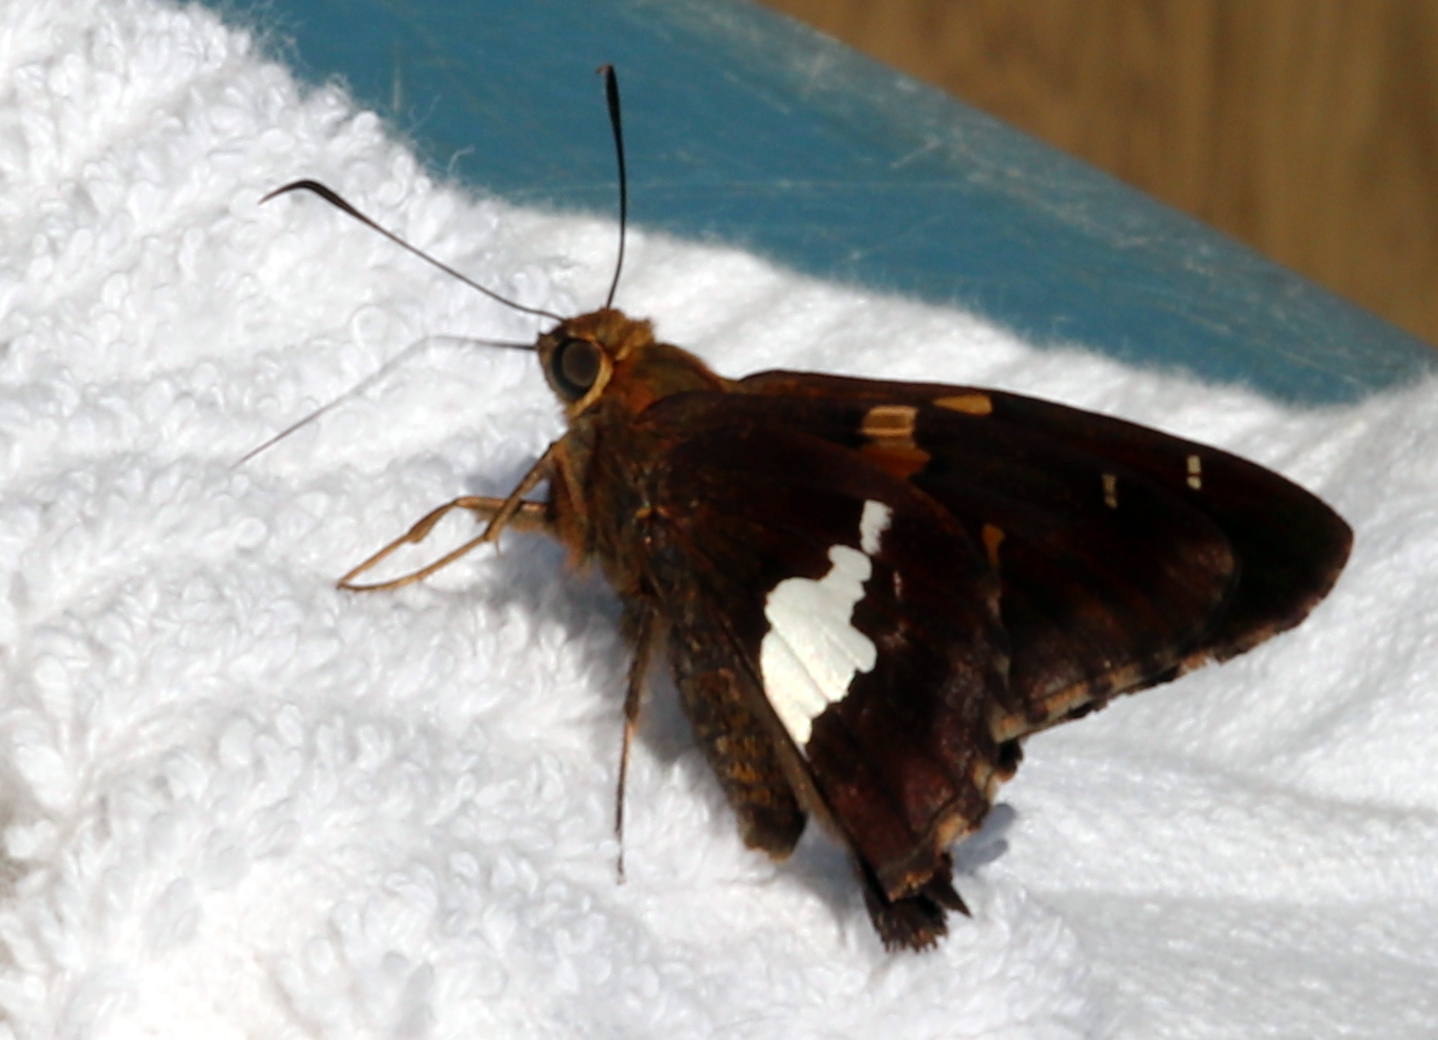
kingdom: Animalia
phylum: Arthropoda
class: Insecta
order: Lepidoptera
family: Hesperiidae
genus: Epargyreus
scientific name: Epargyreus clarus
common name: Silver-spotted skipper
